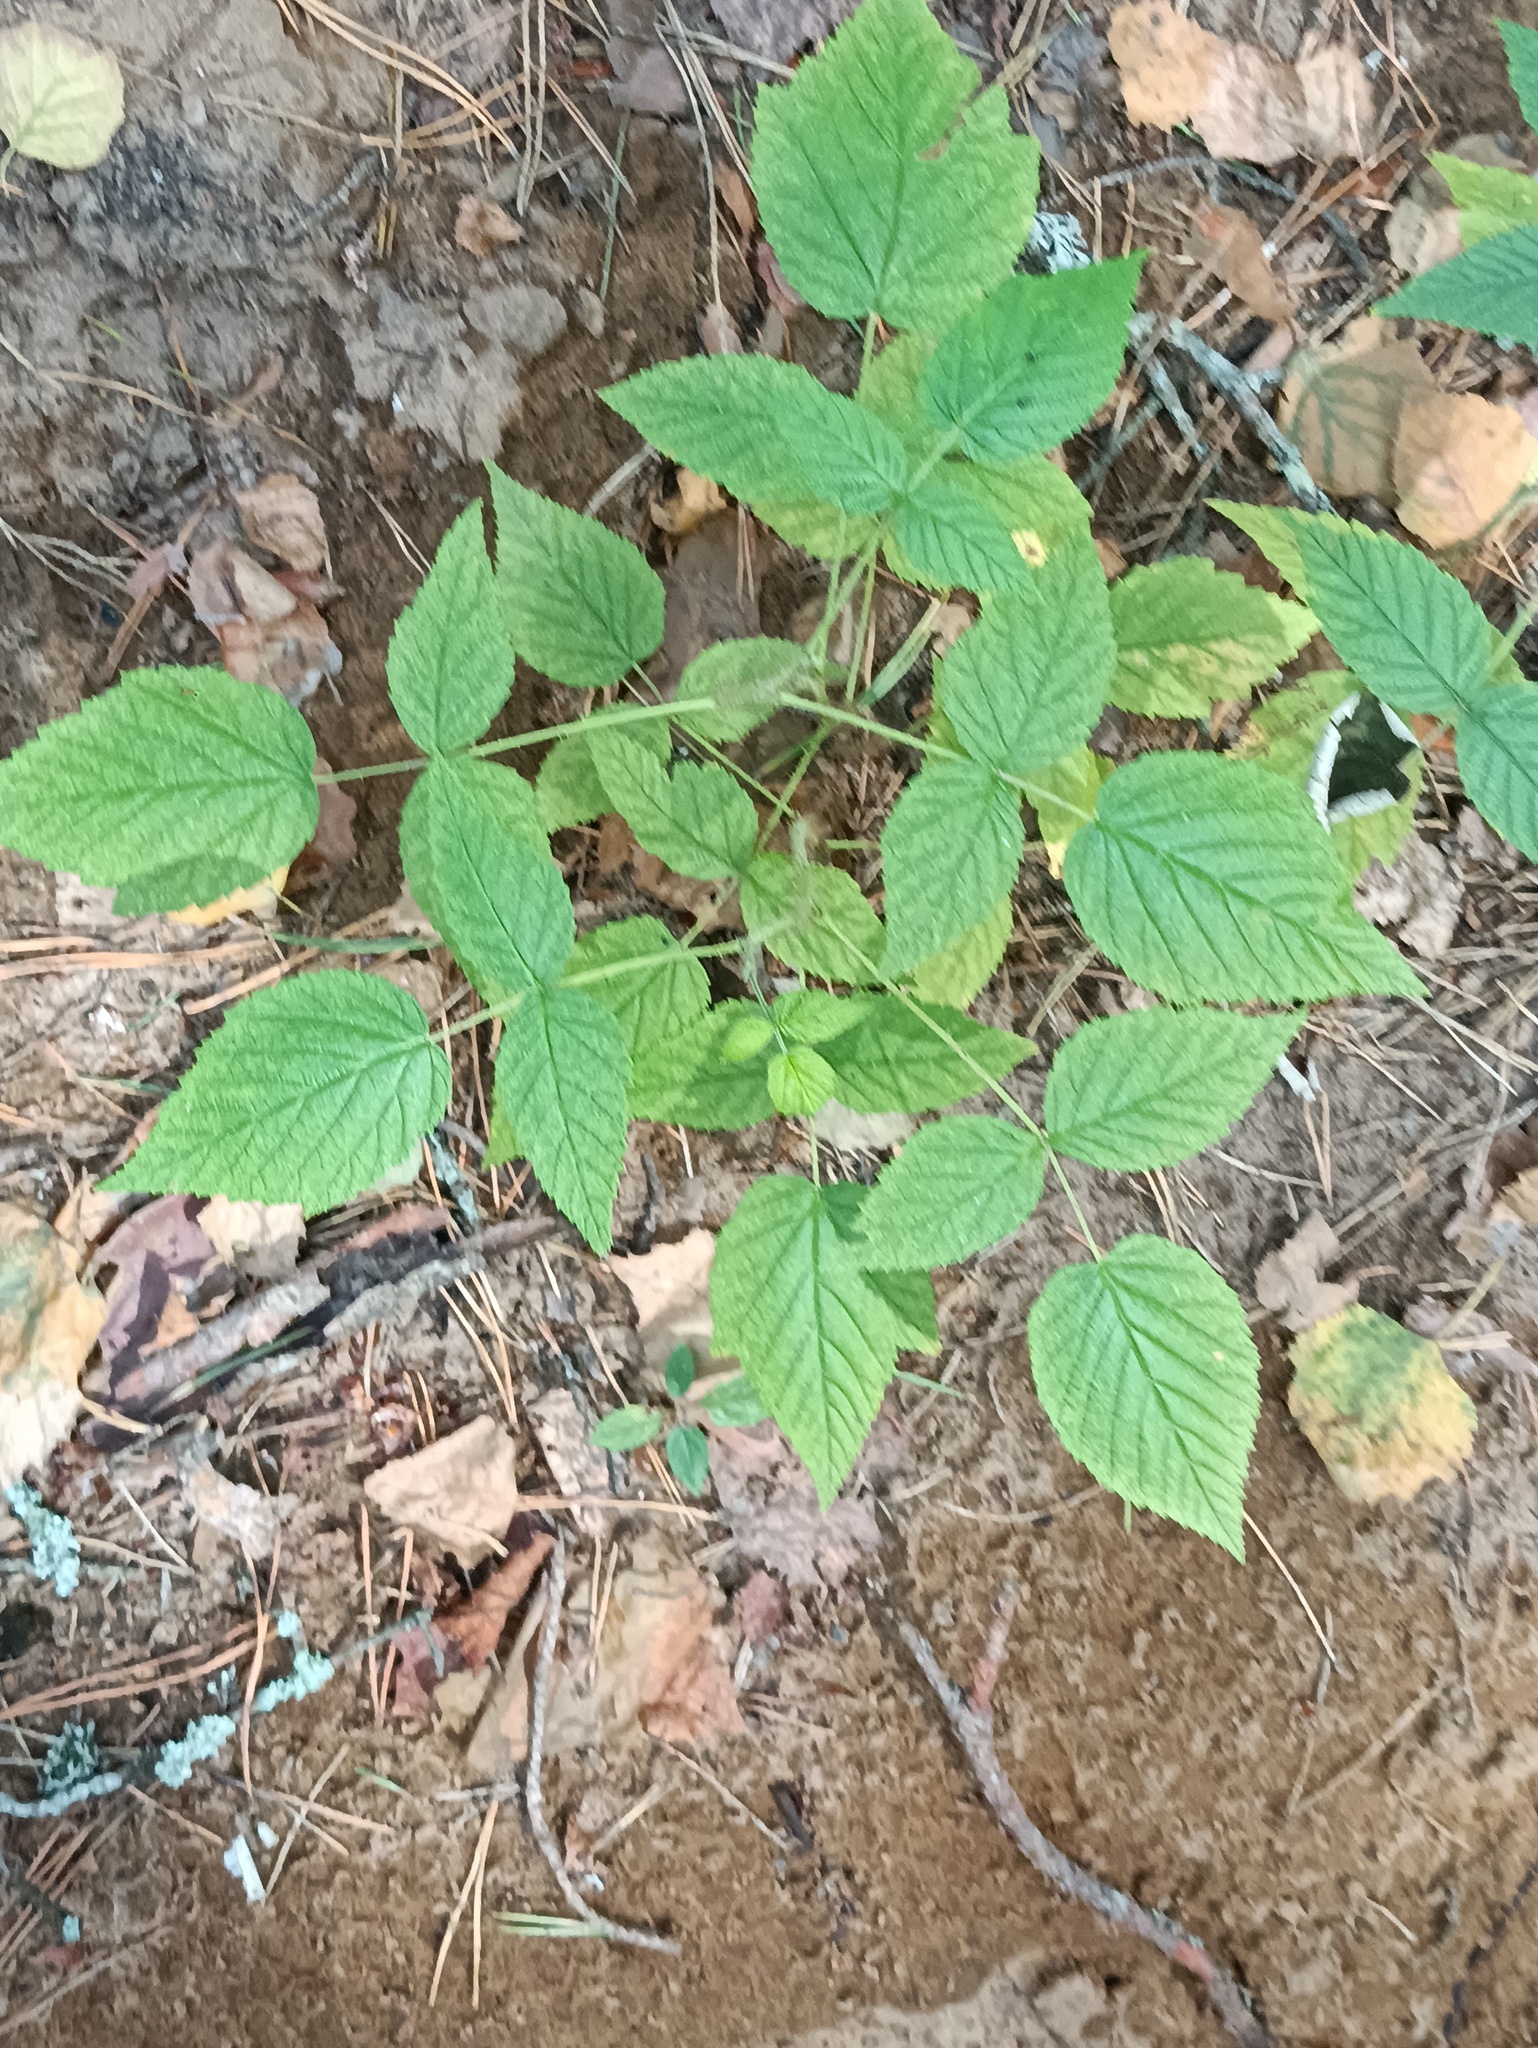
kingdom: Plantae
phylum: Tracheophyta
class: Magnoliopsida
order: Rosales
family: Rosaceae
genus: Rubus
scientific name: Rubus idaeus
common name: Raspberry
